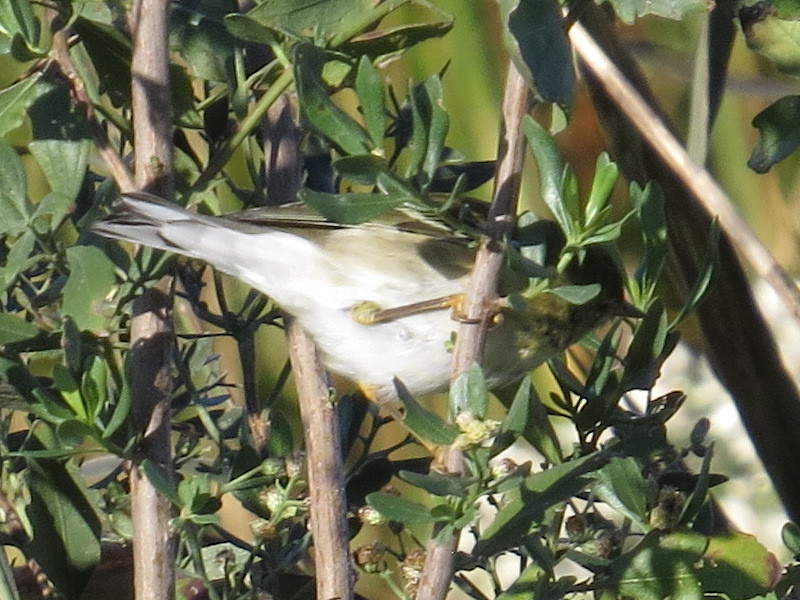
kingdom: Animalia
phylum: Chordata
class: Aves
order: Passeriformes
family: Parulidae
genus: Setophaga
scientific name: Setophaga striata
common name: Blackpoll warbler
